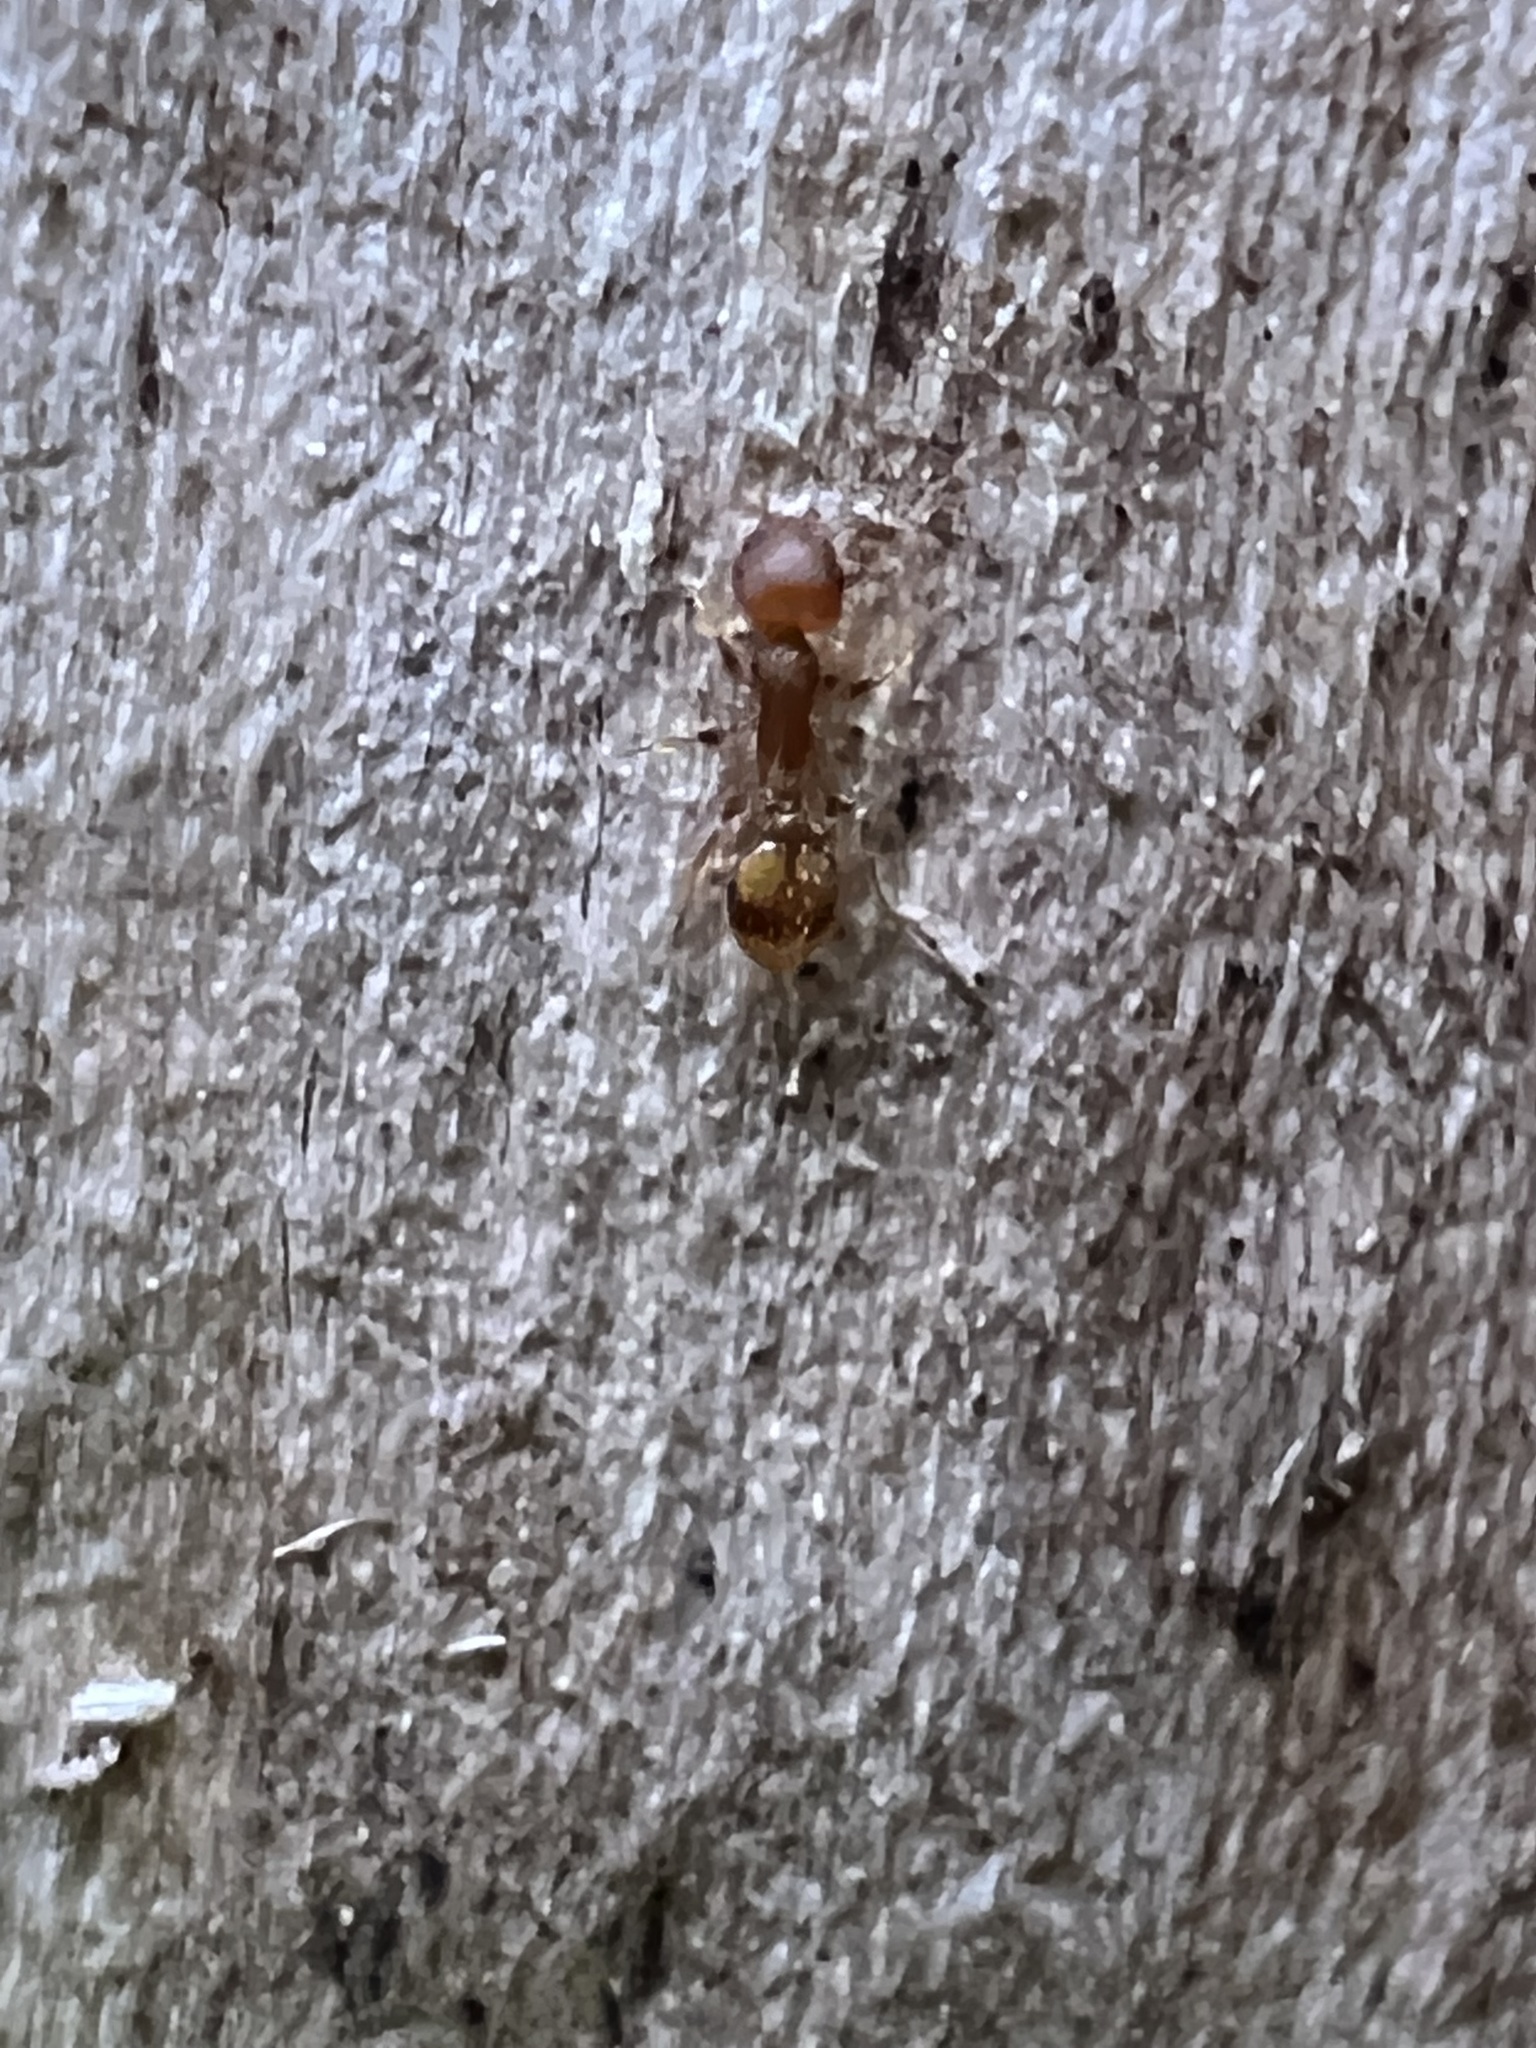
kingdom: Animalia
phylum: Arthropoda
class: Insecta
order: Hymenoptera
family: Formicidae
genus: Temnothorax
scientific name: Temnothorax curvispinosus
